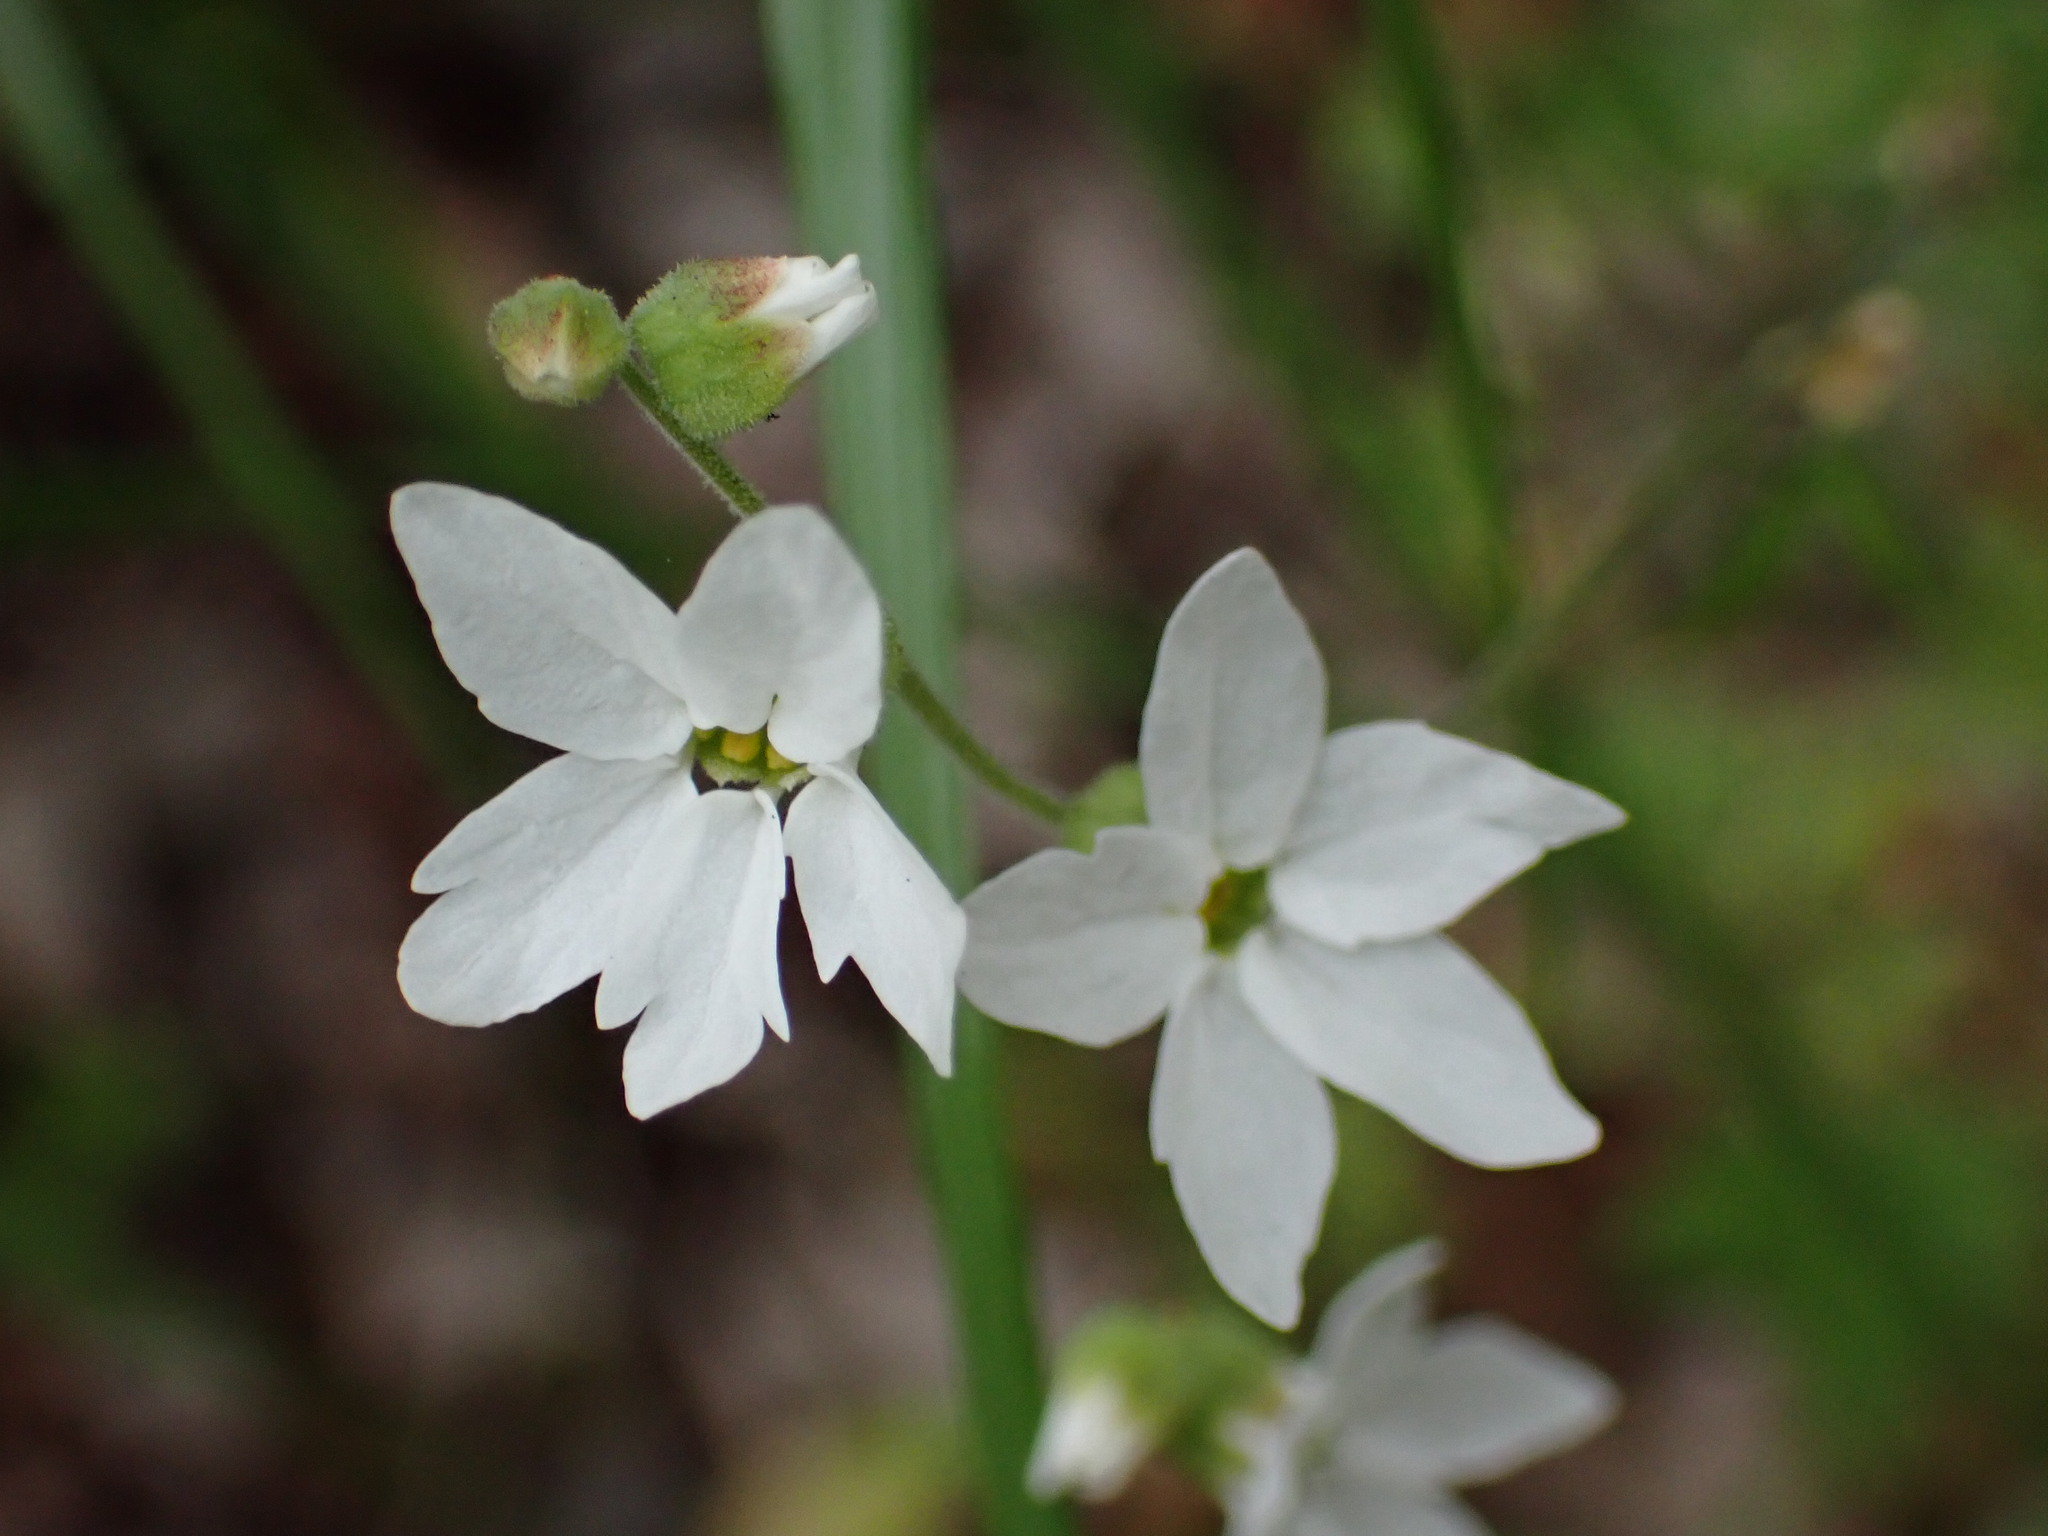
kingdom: Plantae
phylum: Tracheophyta
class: Magnoliopsida
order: Saxifragales
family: Saxifragaceae
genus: Lithophragma
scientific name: Lithophragma heterophyllum
